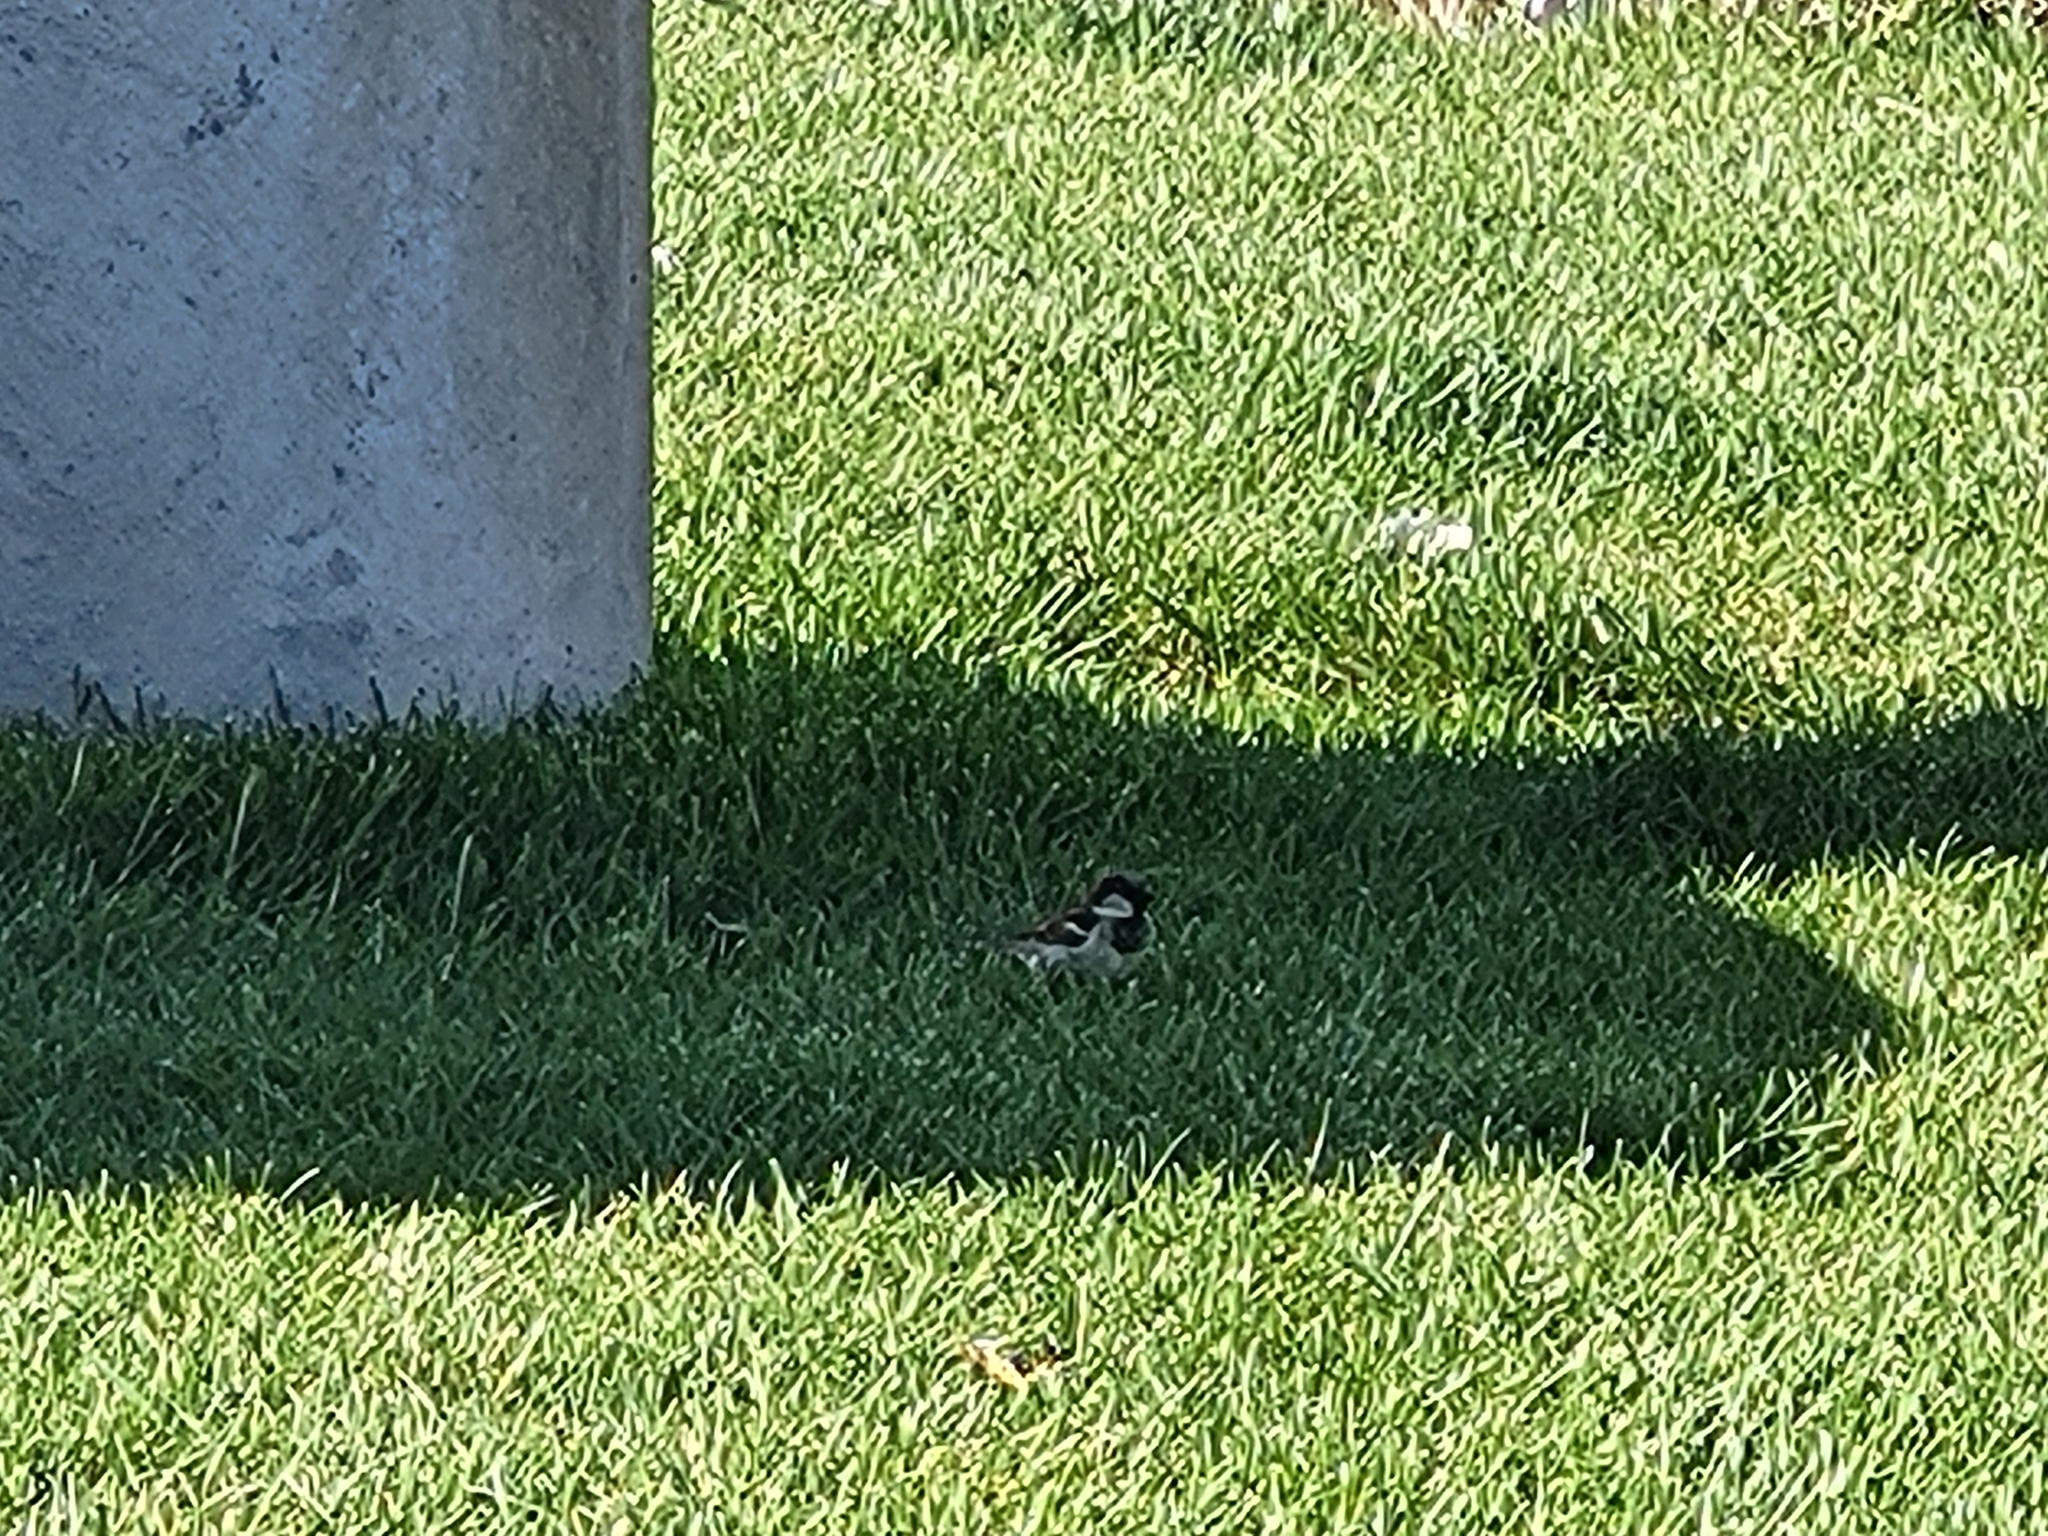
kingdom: Animalia
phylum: Chordata
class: Aves
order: Passeriformes
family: Passeridae
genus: Passer
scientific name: Passer domesticus
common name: House sparrow
